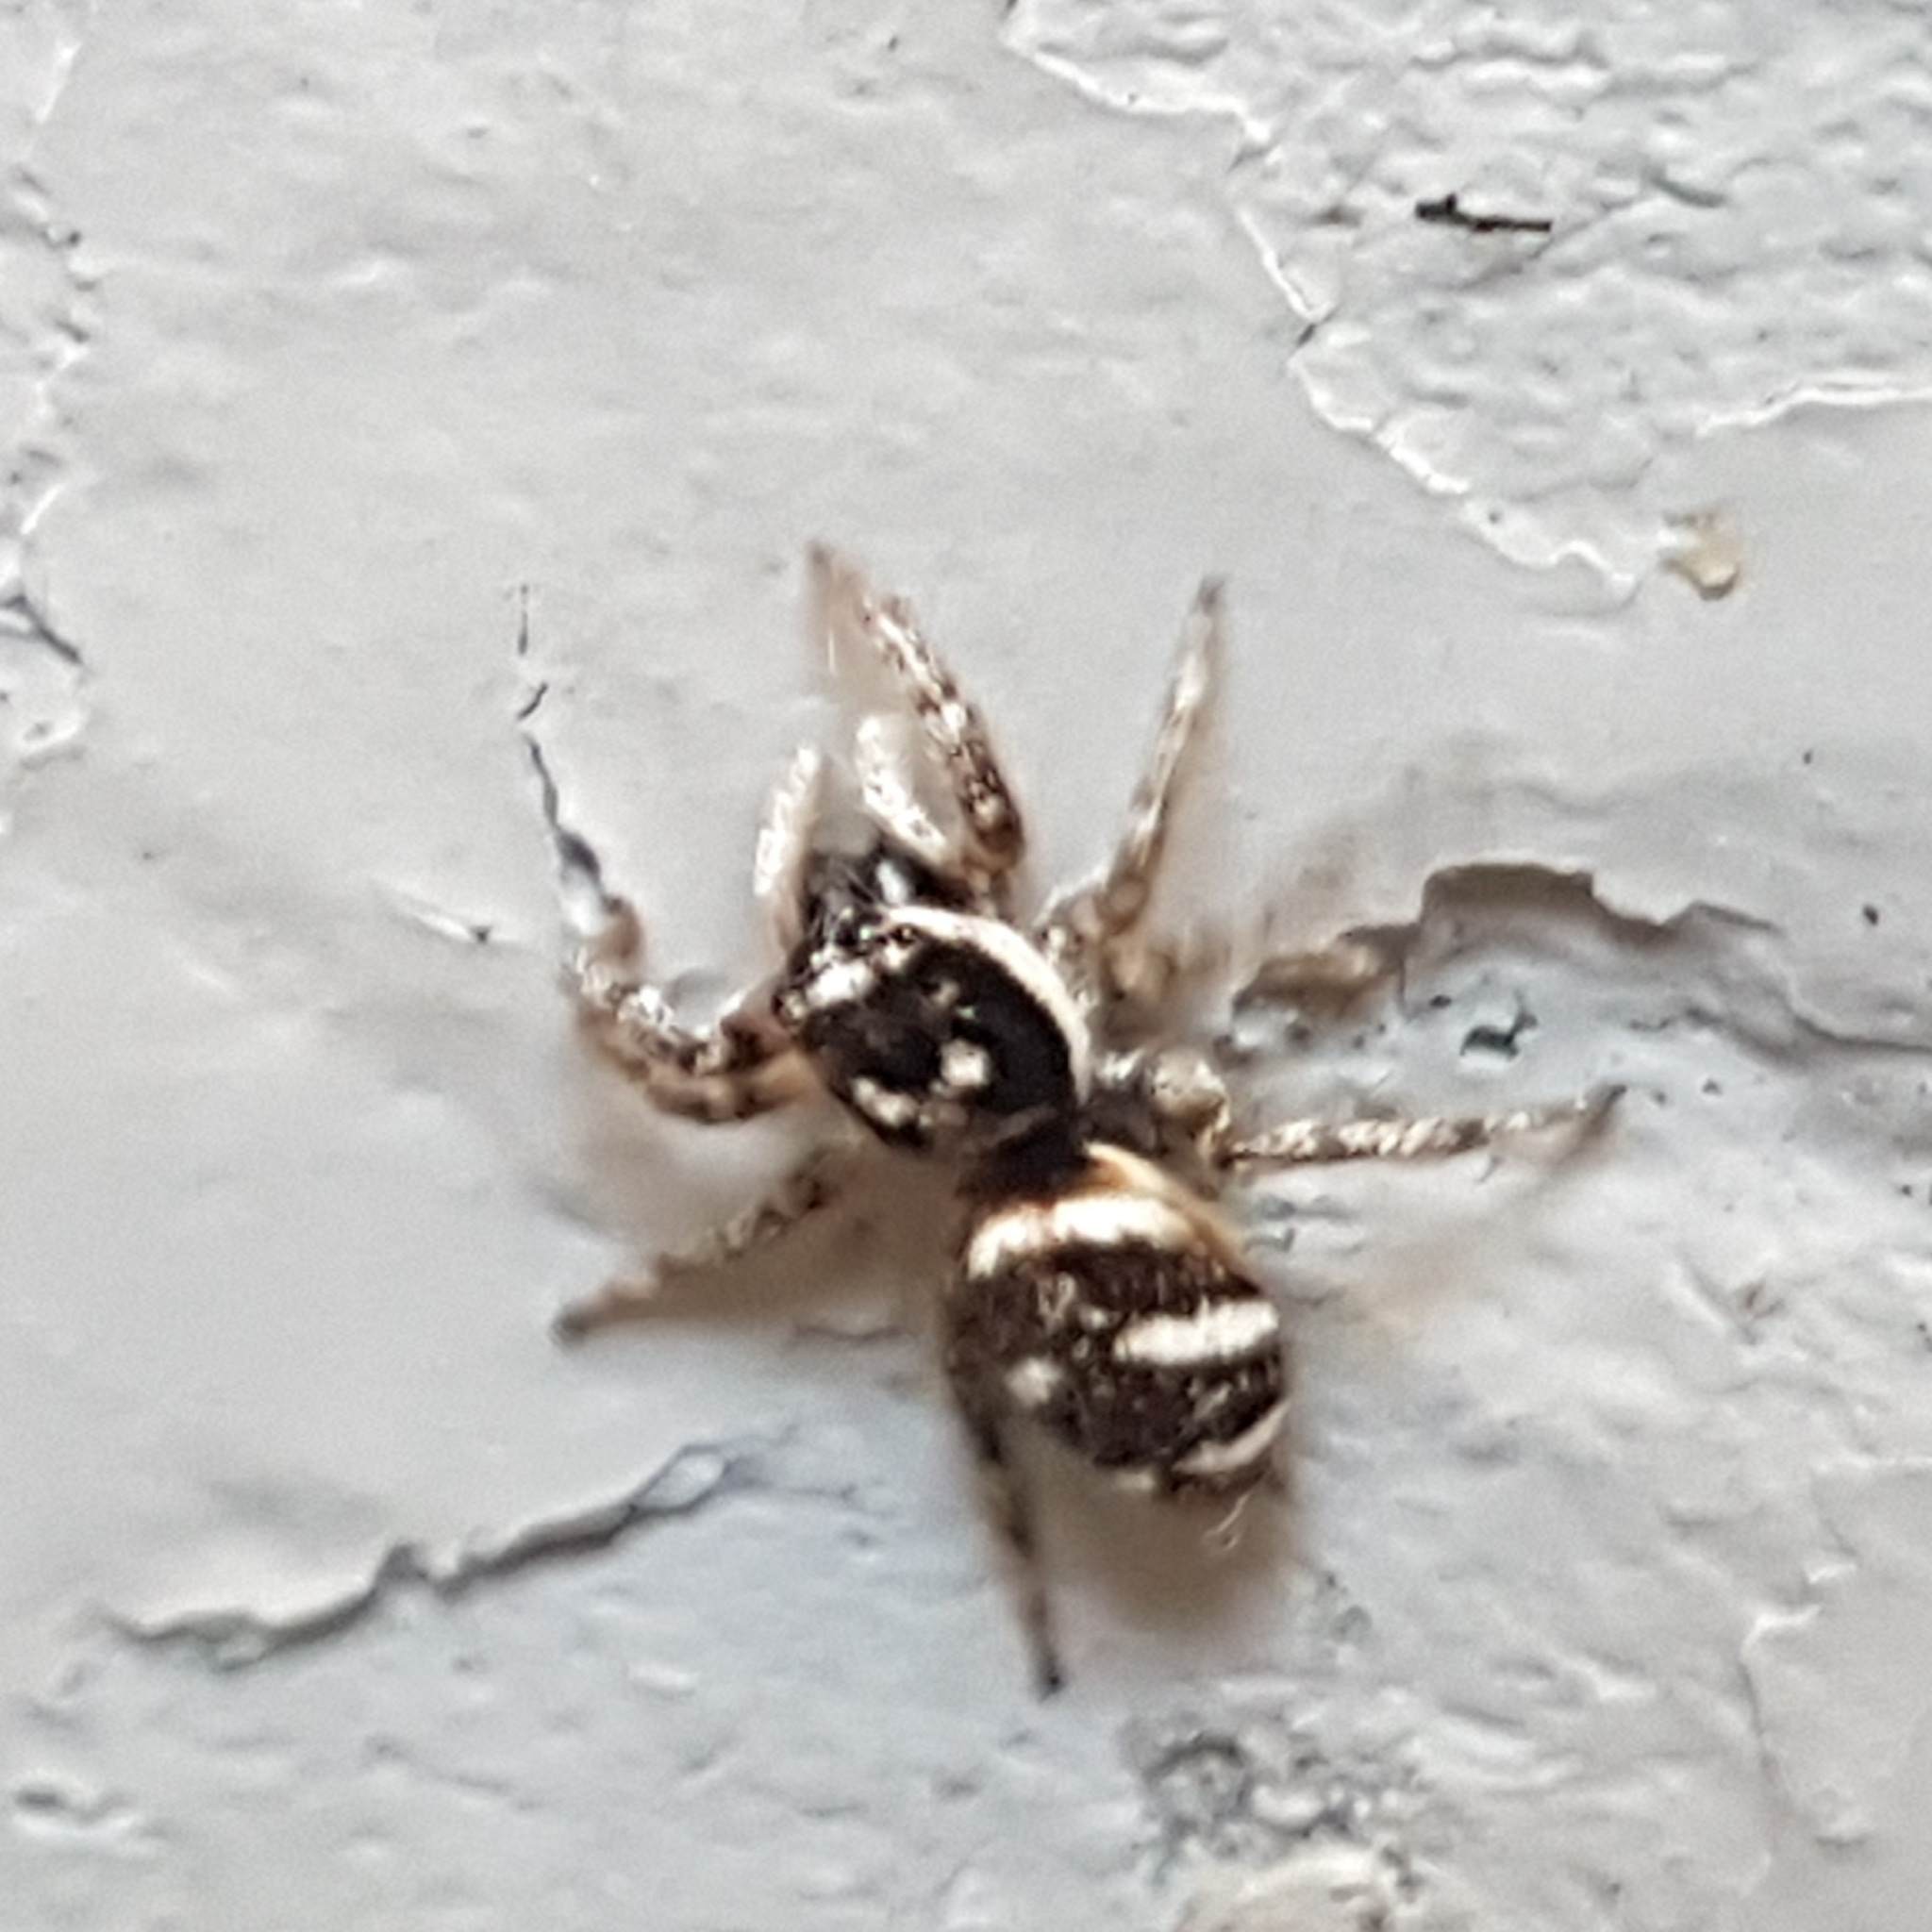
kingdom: Animalia
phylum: Arthropoda
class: Arachnida
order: Araneae
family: Salticidae
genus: Salticus
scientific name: Salticus scenicus
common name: Zebra jumper
